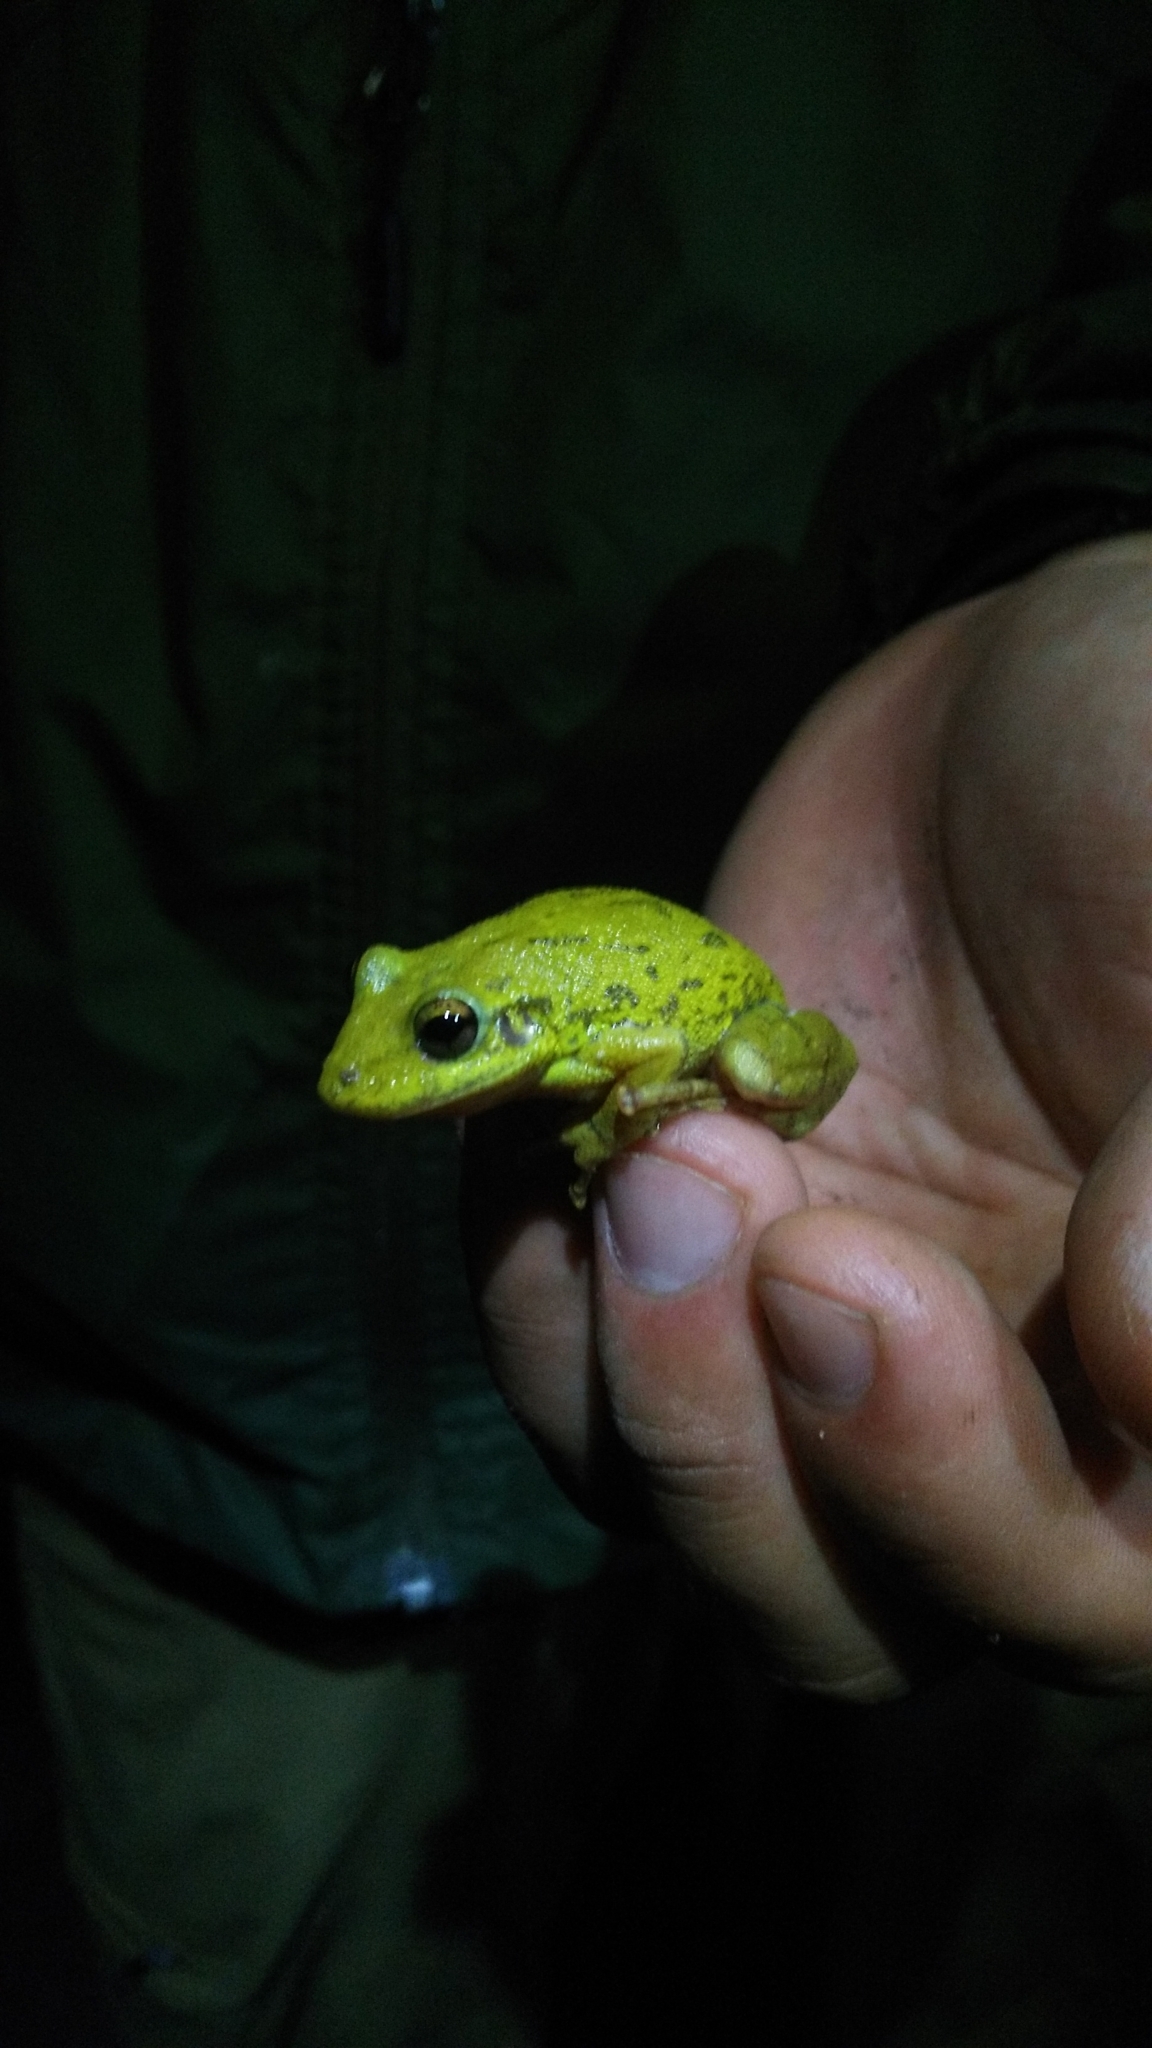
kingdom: Animalia
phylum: Chordata
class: Amphibia
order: Anura
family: Hylidae
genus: Scinax
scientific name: Scinax fuscovarius
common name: Fuscous-blotched treefrog
